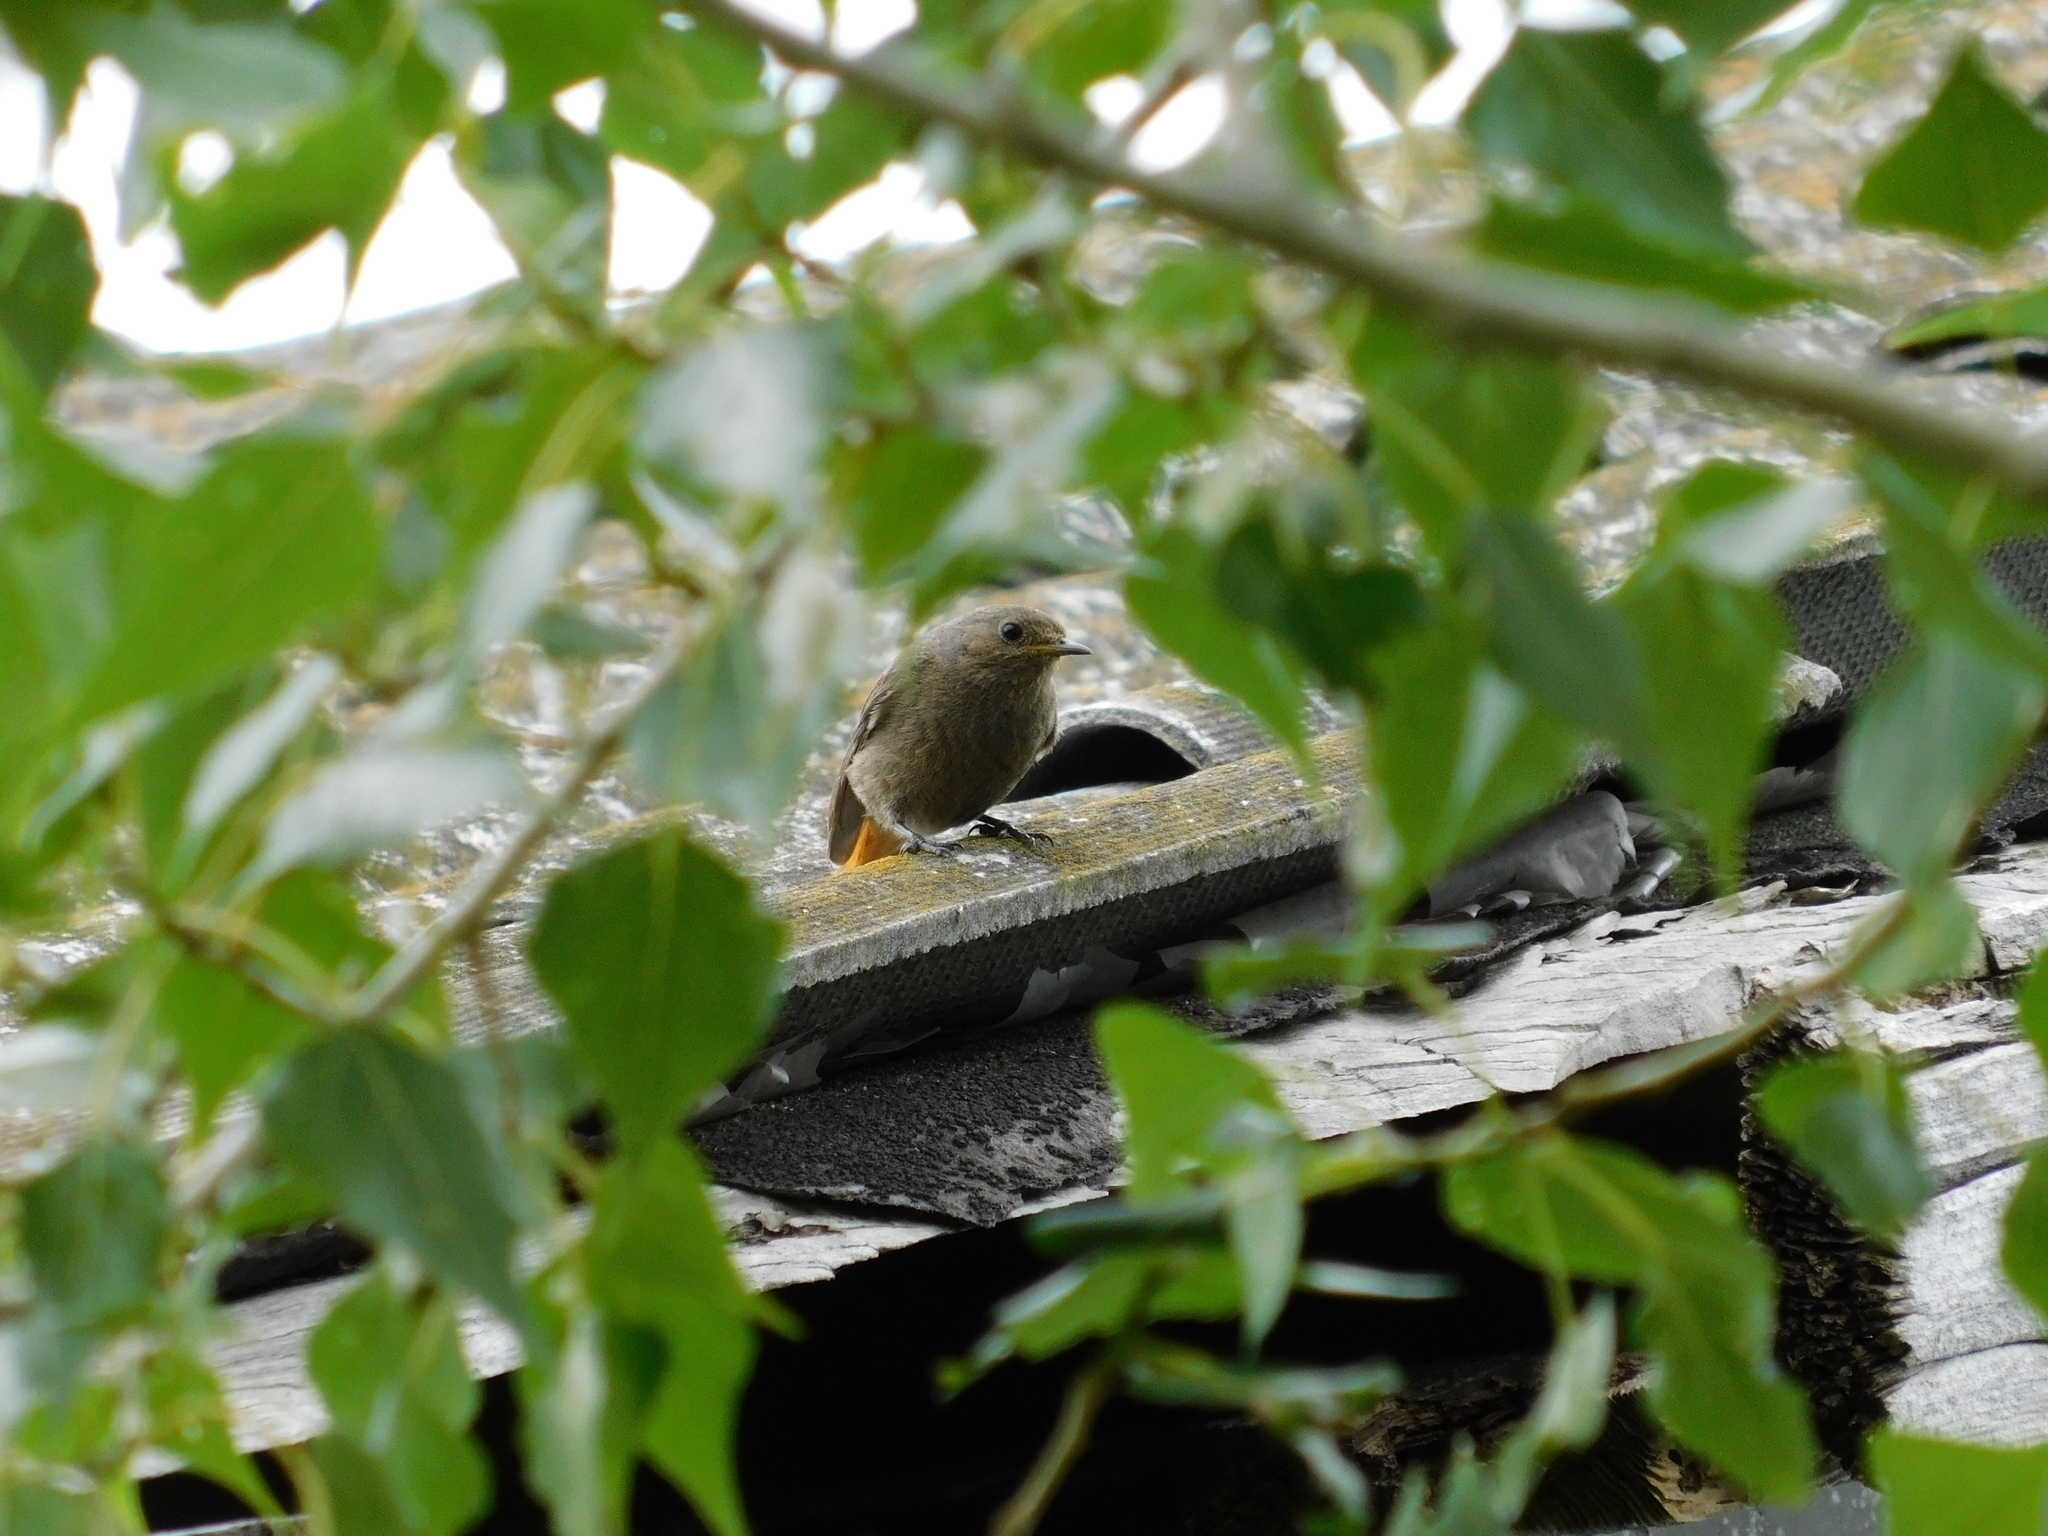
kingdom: Animalia
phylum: Chordata
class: Aves
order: Passeriformes
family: Muscicapidae
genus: Phoenicurus
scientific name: Phoenicurus ochruros
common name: Black redstart
